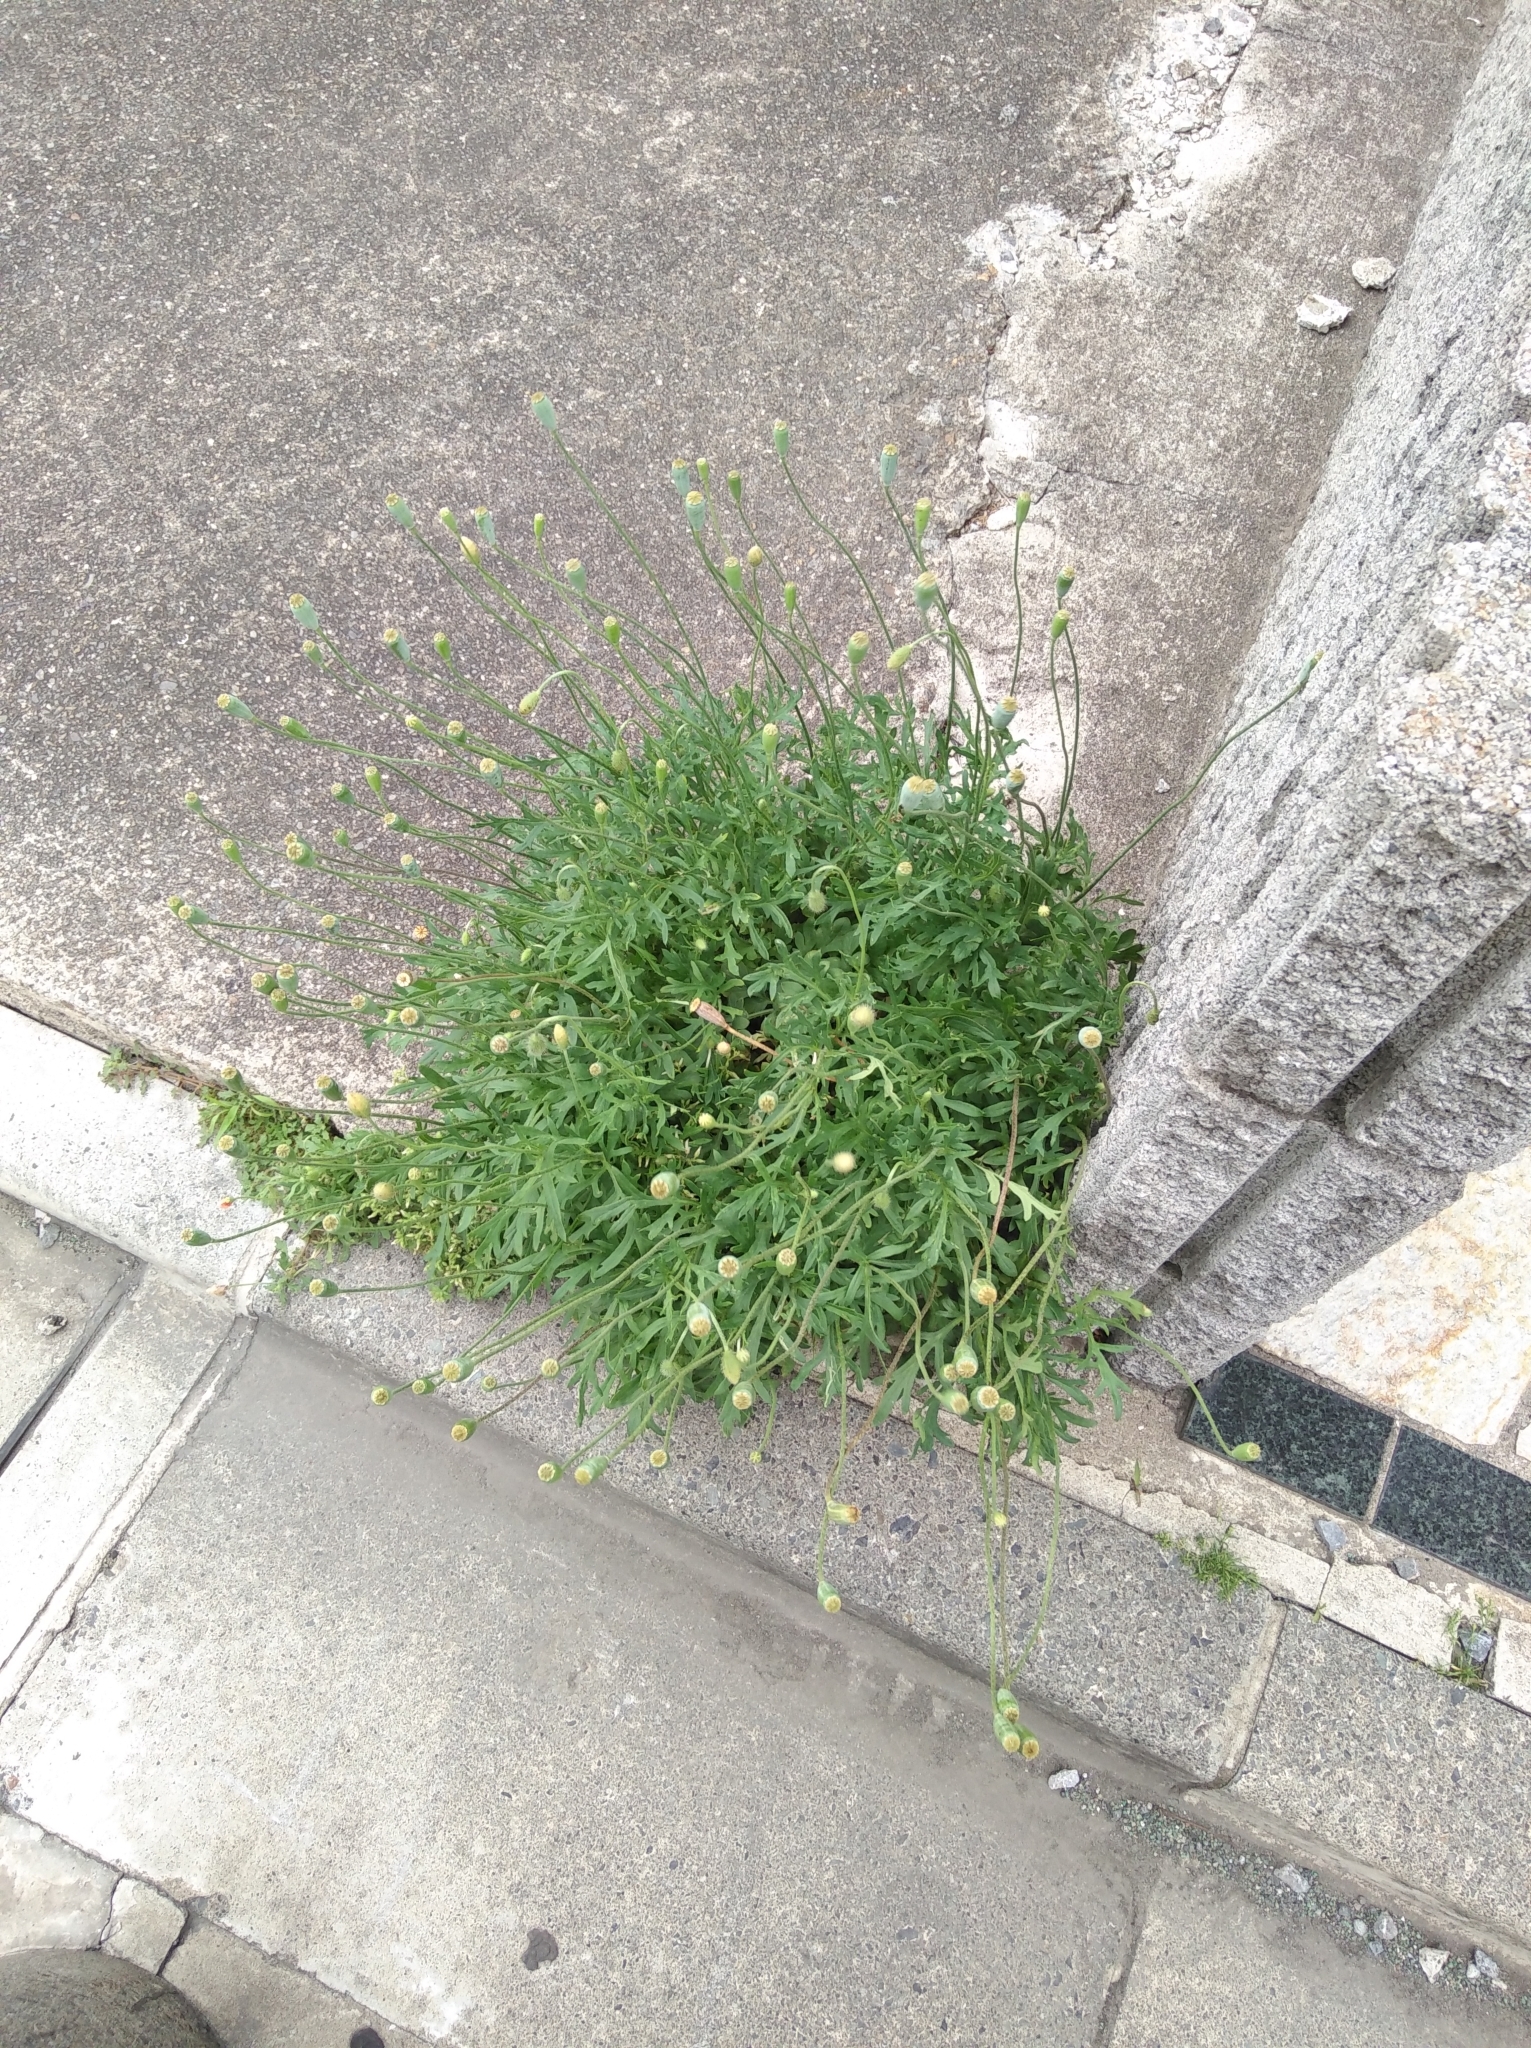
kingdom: Plantae
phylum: Tracheophyta
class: Magnoliopsida
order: Ranunculales
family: Papaveraceae
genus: Papaver
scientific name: Papaver dubium
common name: Long-headed poppy
